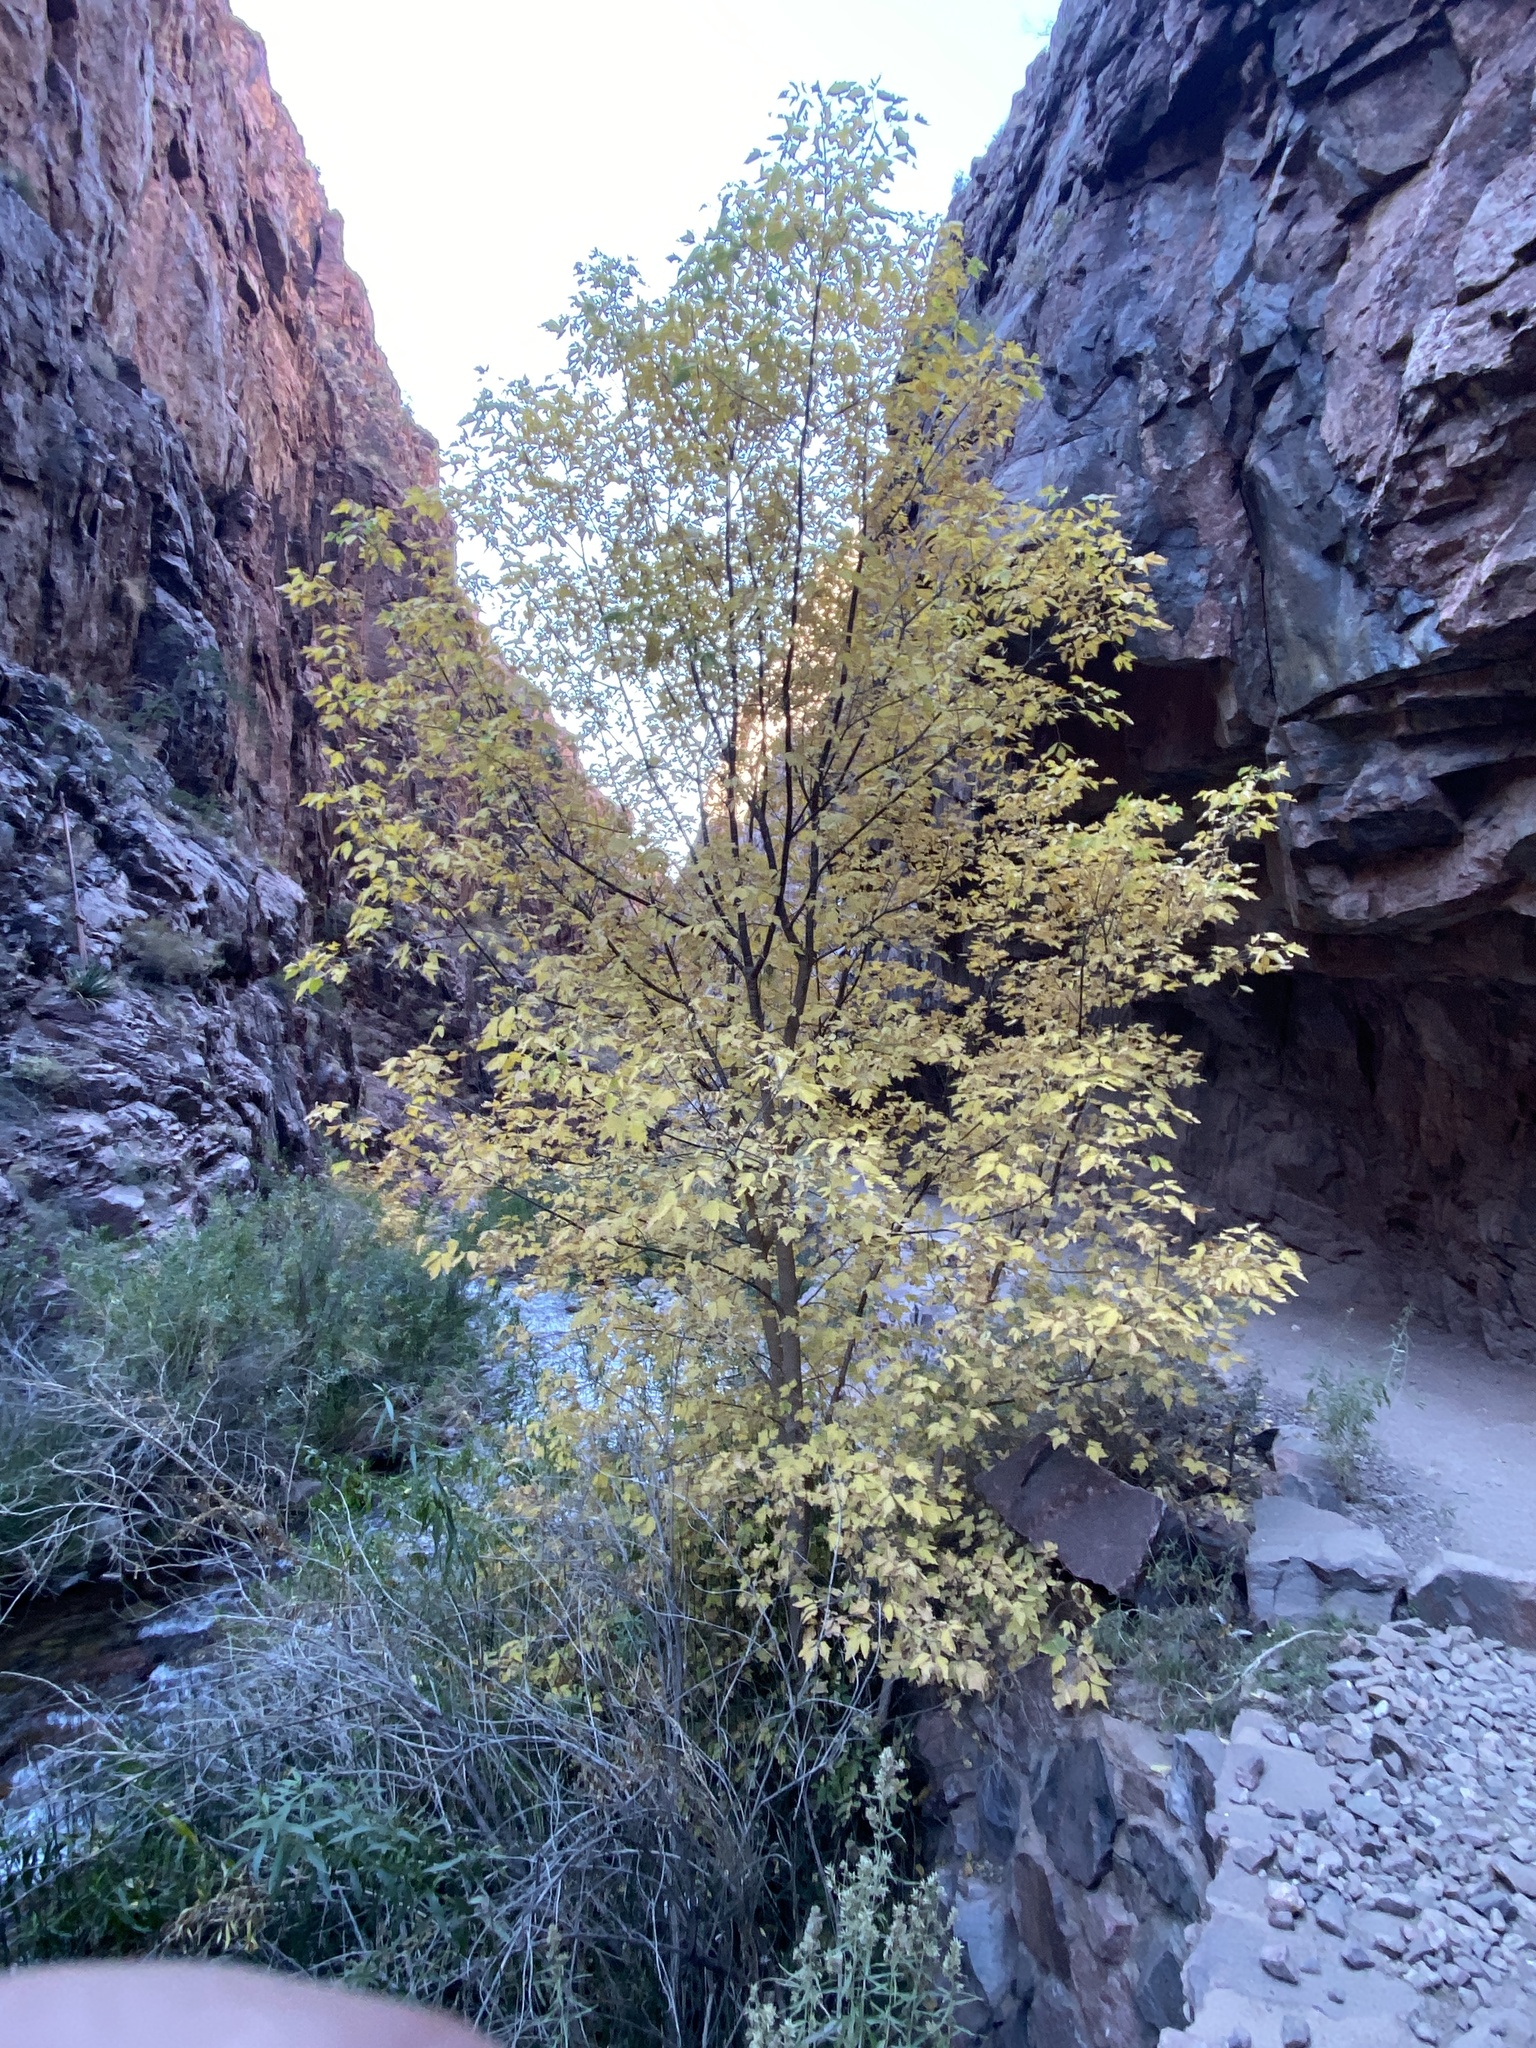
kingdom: Plantae
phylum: Tracheophyta
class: Magnoliopsida
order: Sapindales
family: Sapindaceae
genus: Acer
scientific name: Acer negundo
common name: Ashleaf maple
